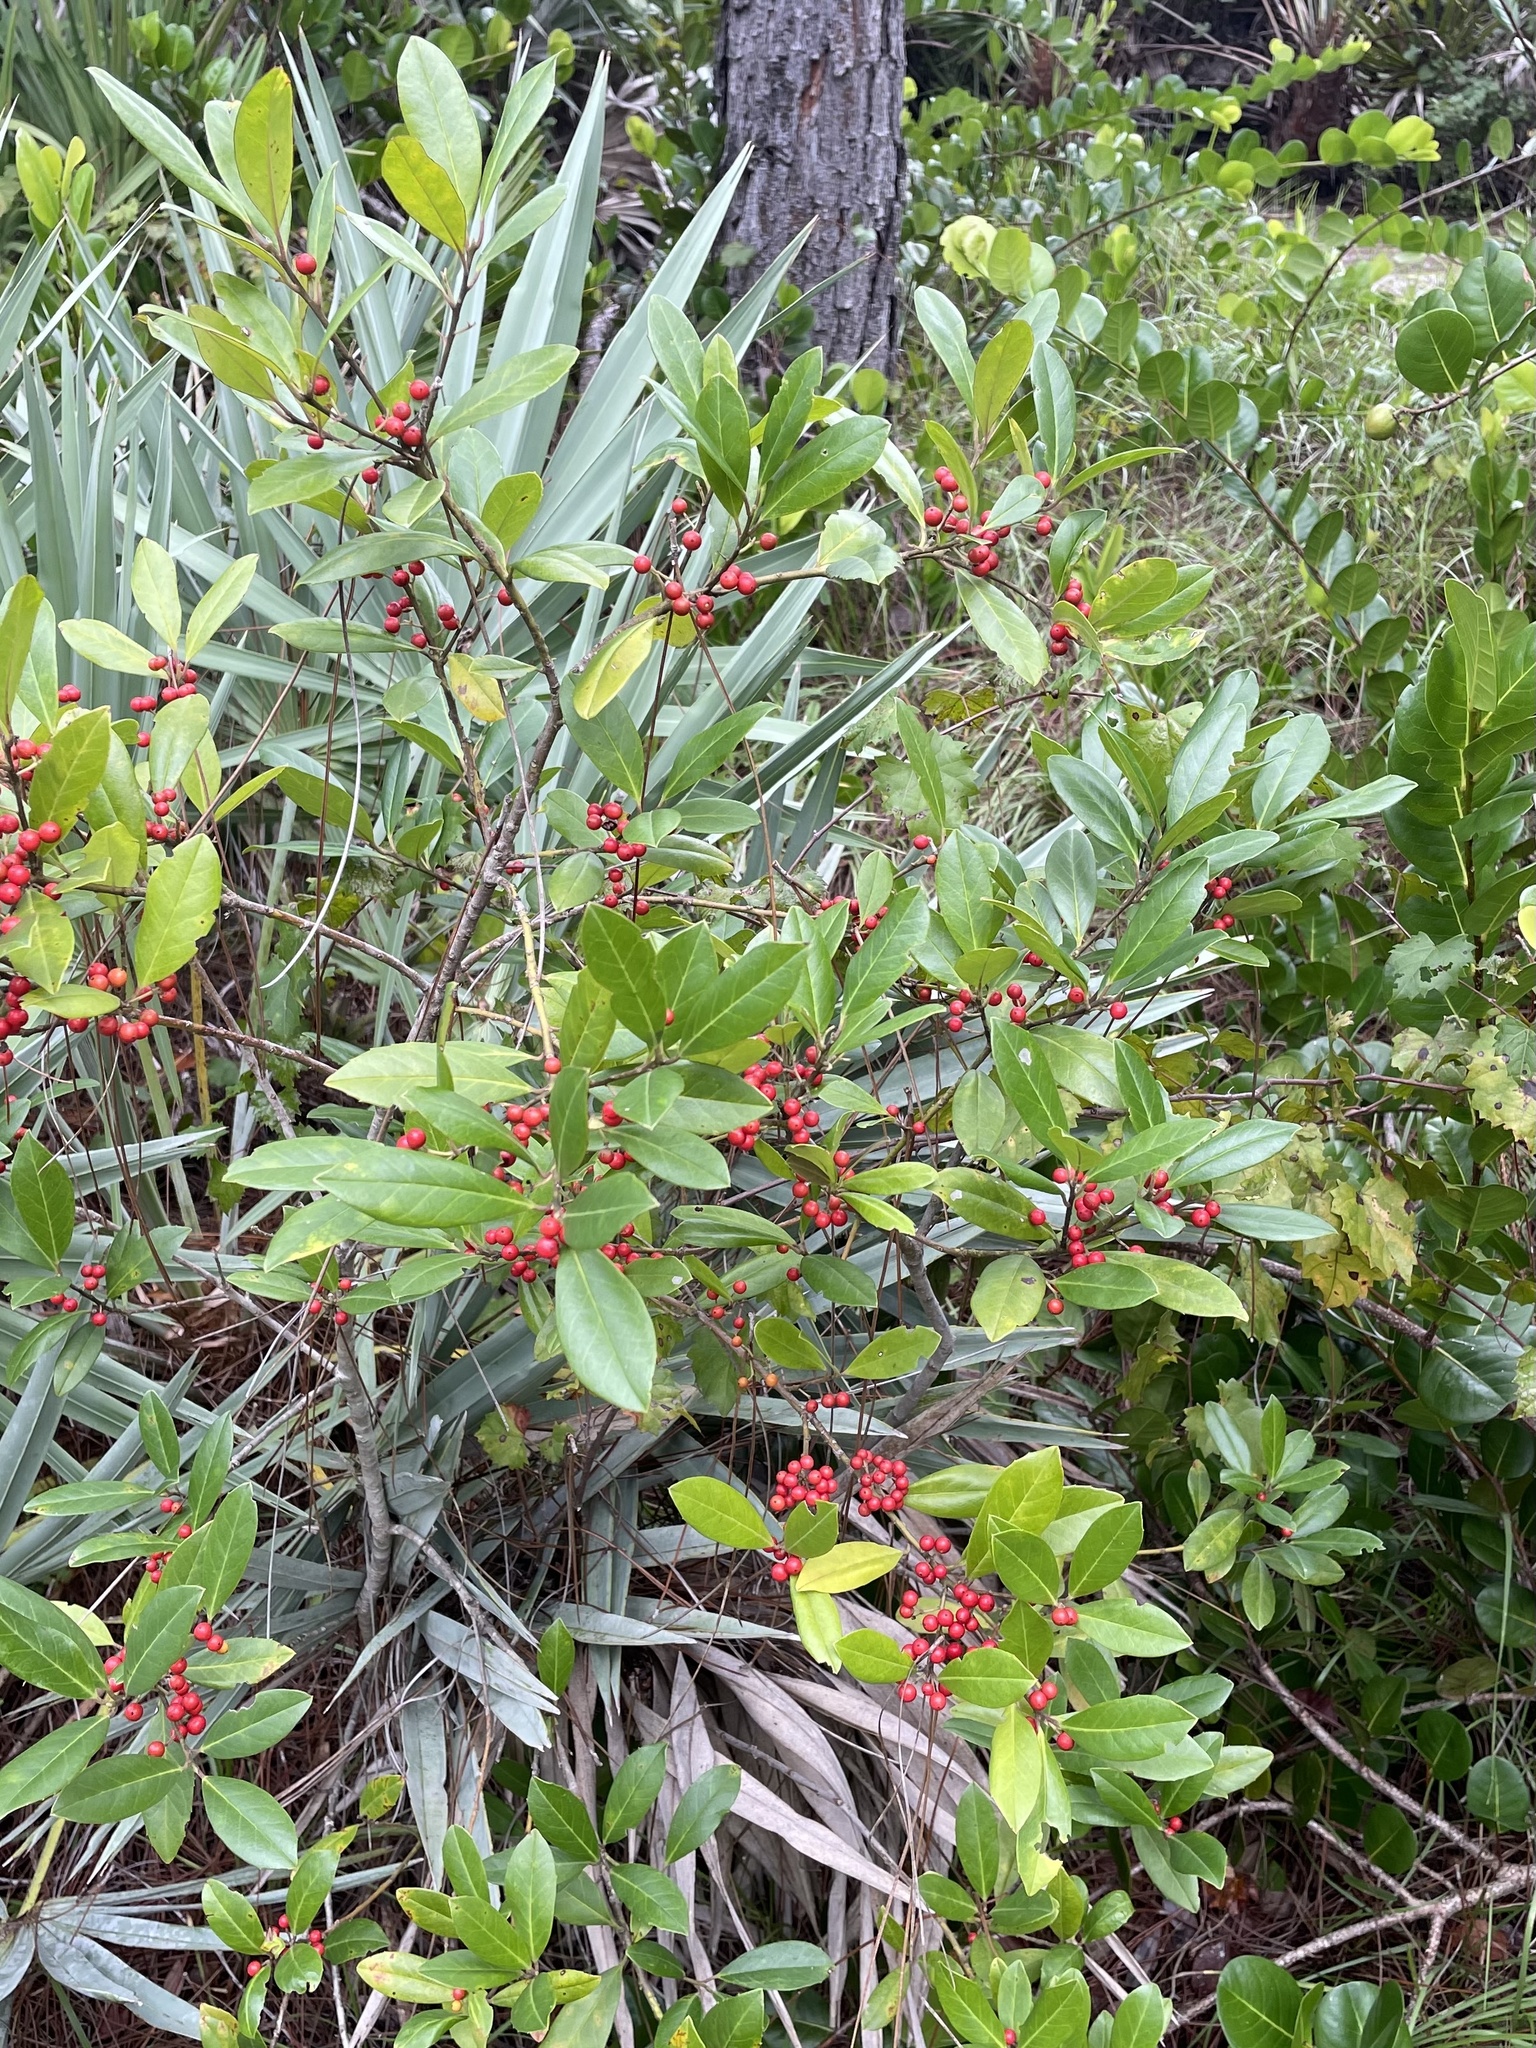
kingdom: Plantae
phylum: Tracheophyta
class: Magnoliopsida
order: Aquifoliales
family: Aquifoliaceae
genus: Ilex
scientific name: Ilex cassine
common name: Dahoon
